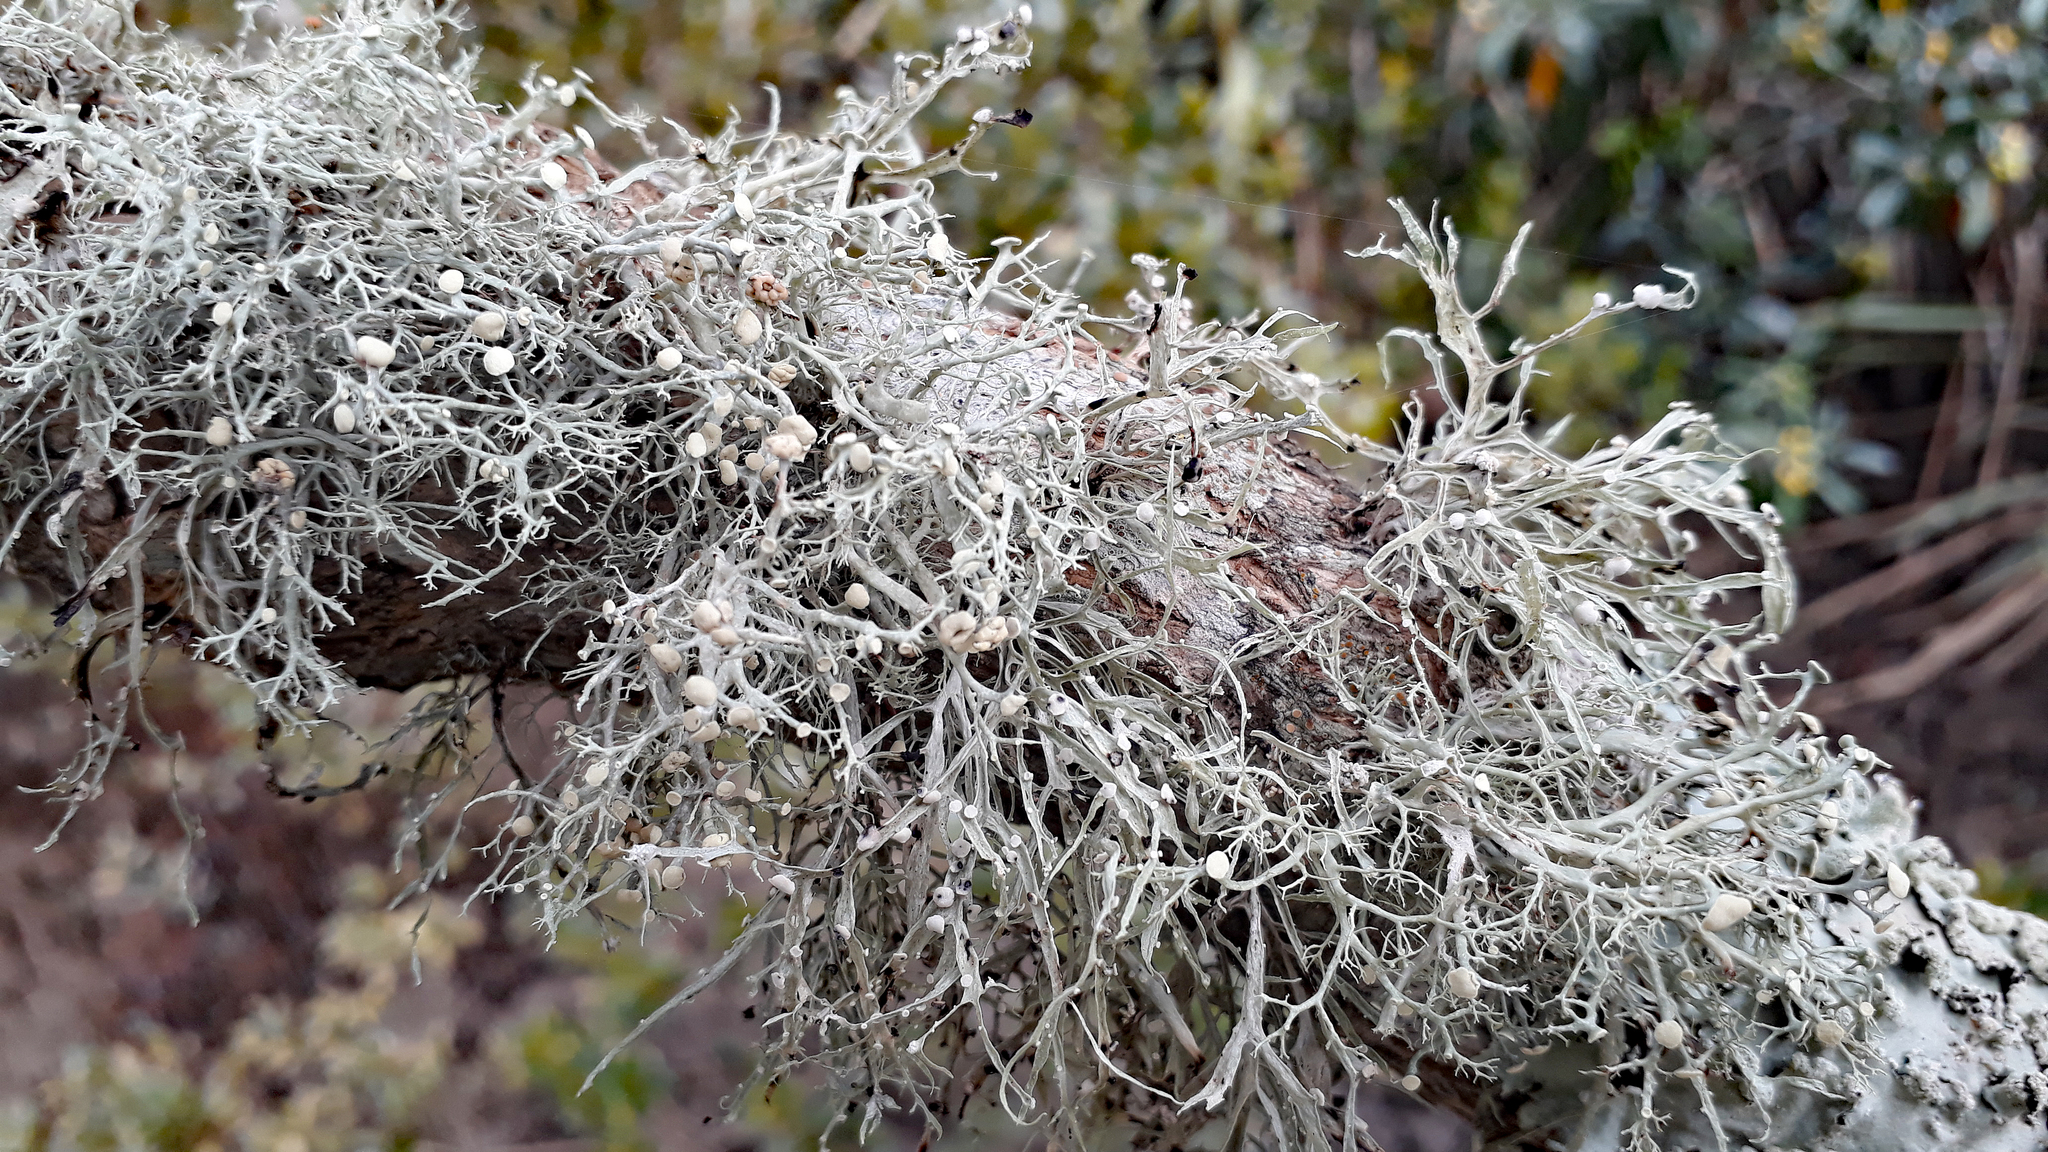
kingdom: Fungi
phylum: Ascomycota
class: Lecanoromycetes
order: Lecanorales
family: Ramalinaceae
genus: Ramalina
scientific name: Ramalina inflata
